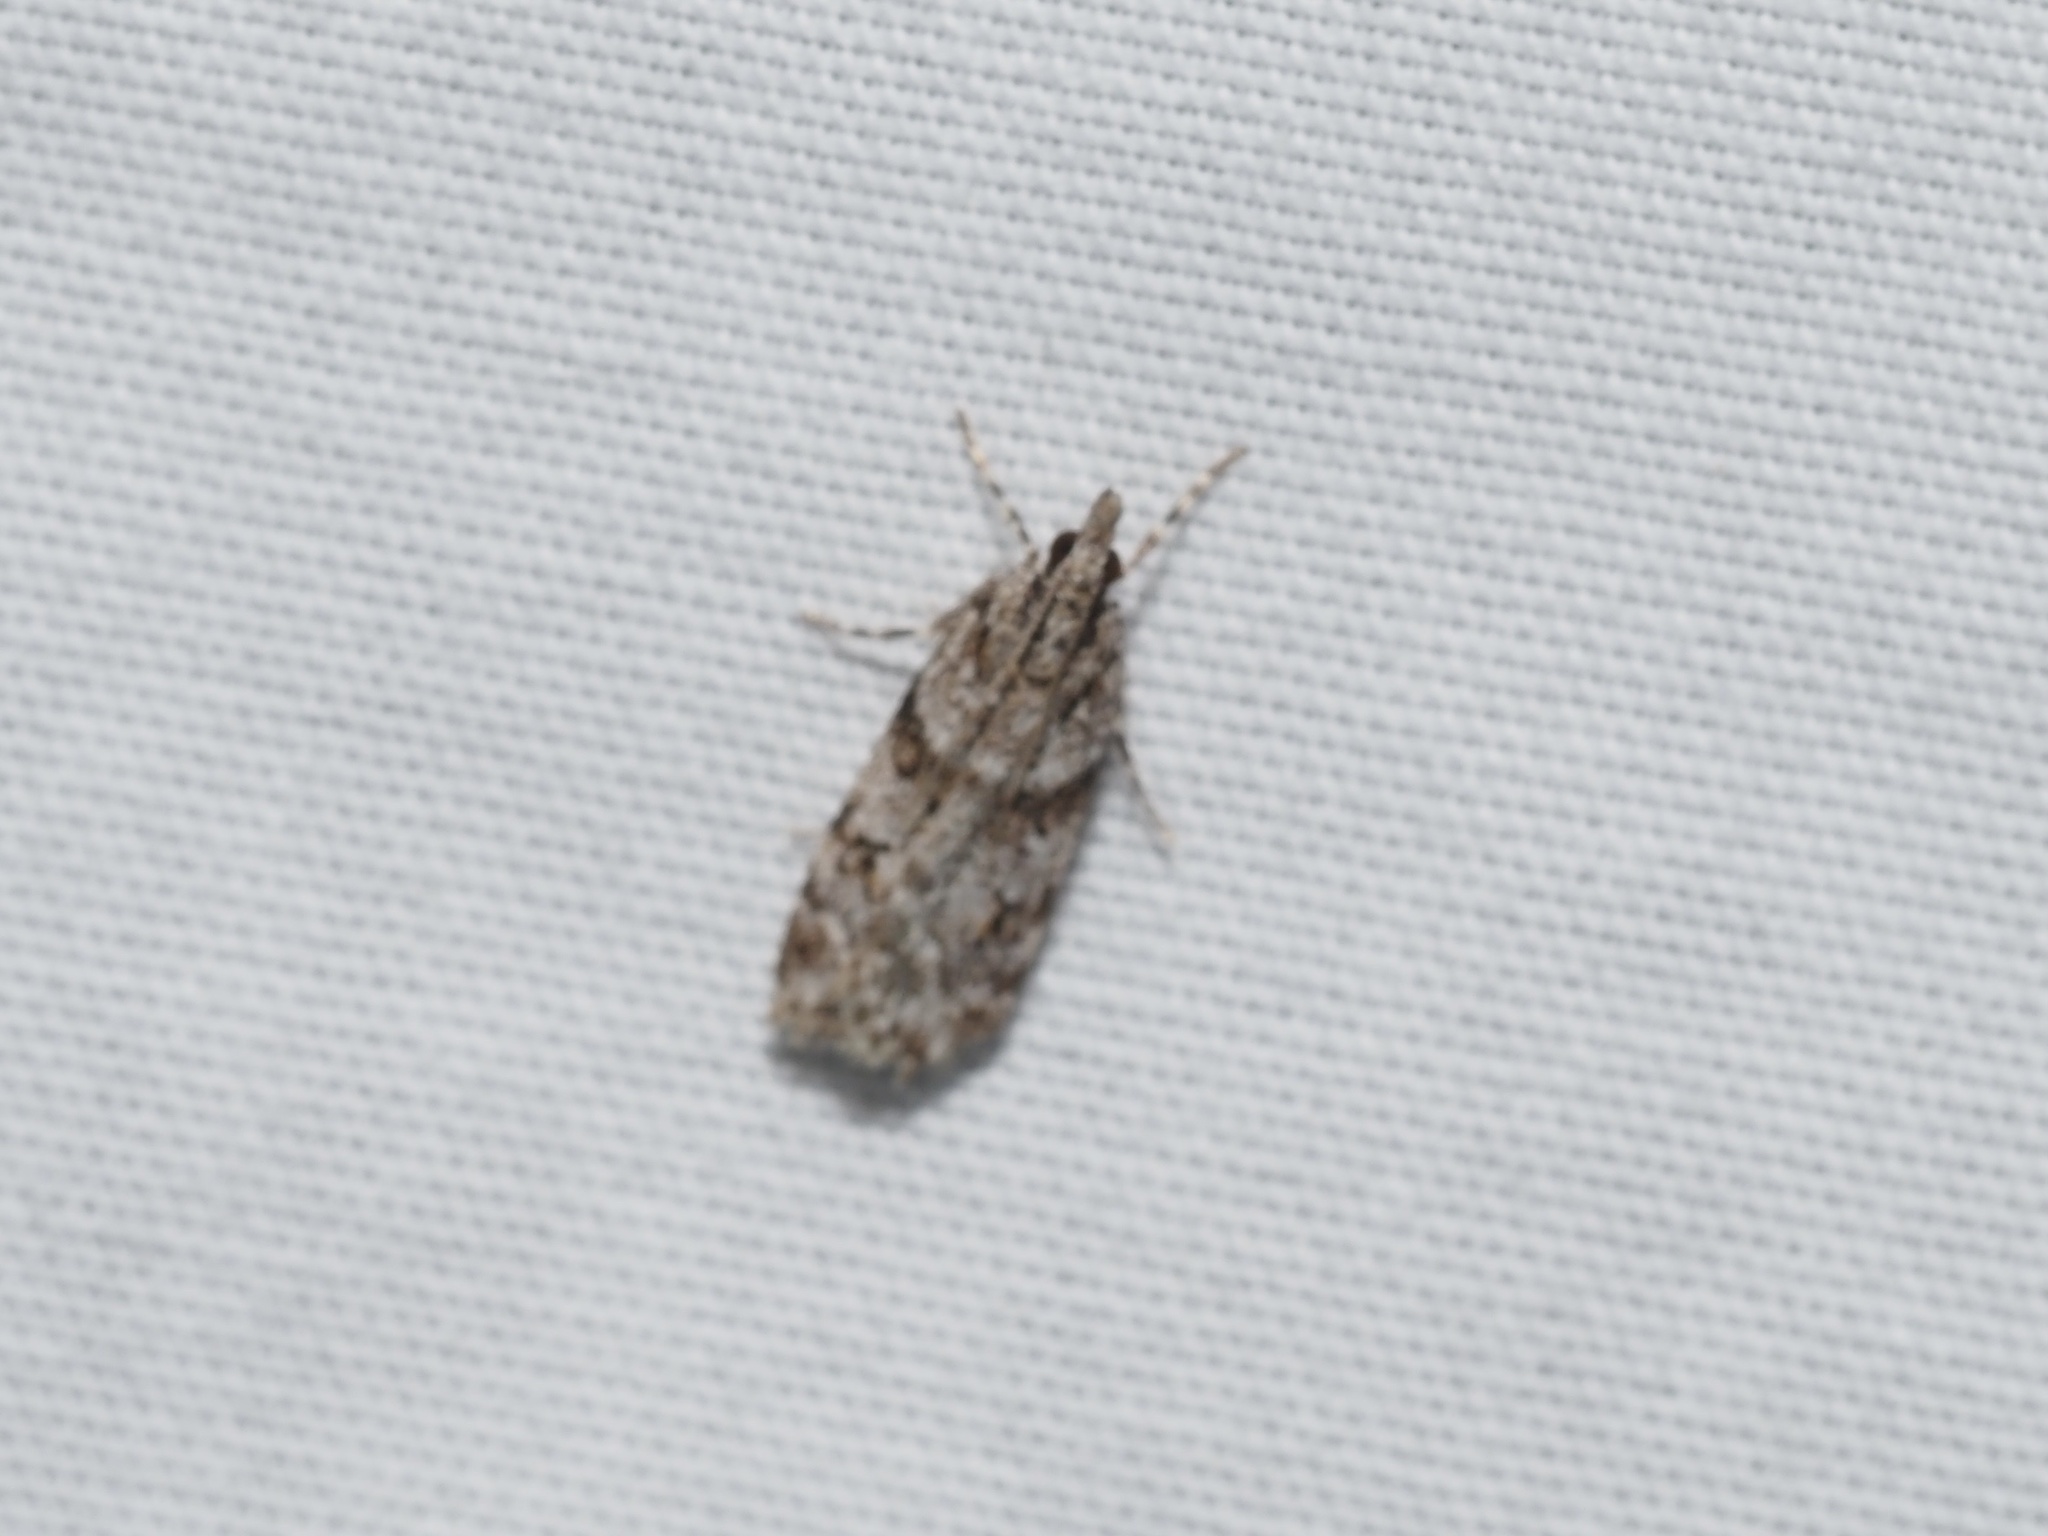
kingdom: Animalia
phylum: Arthropoda
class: Insecta
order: Lepidoptera
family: Crambidae
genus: Scoparia
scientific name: Scoparia biplagialis
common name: Double-striped scoparia moth
